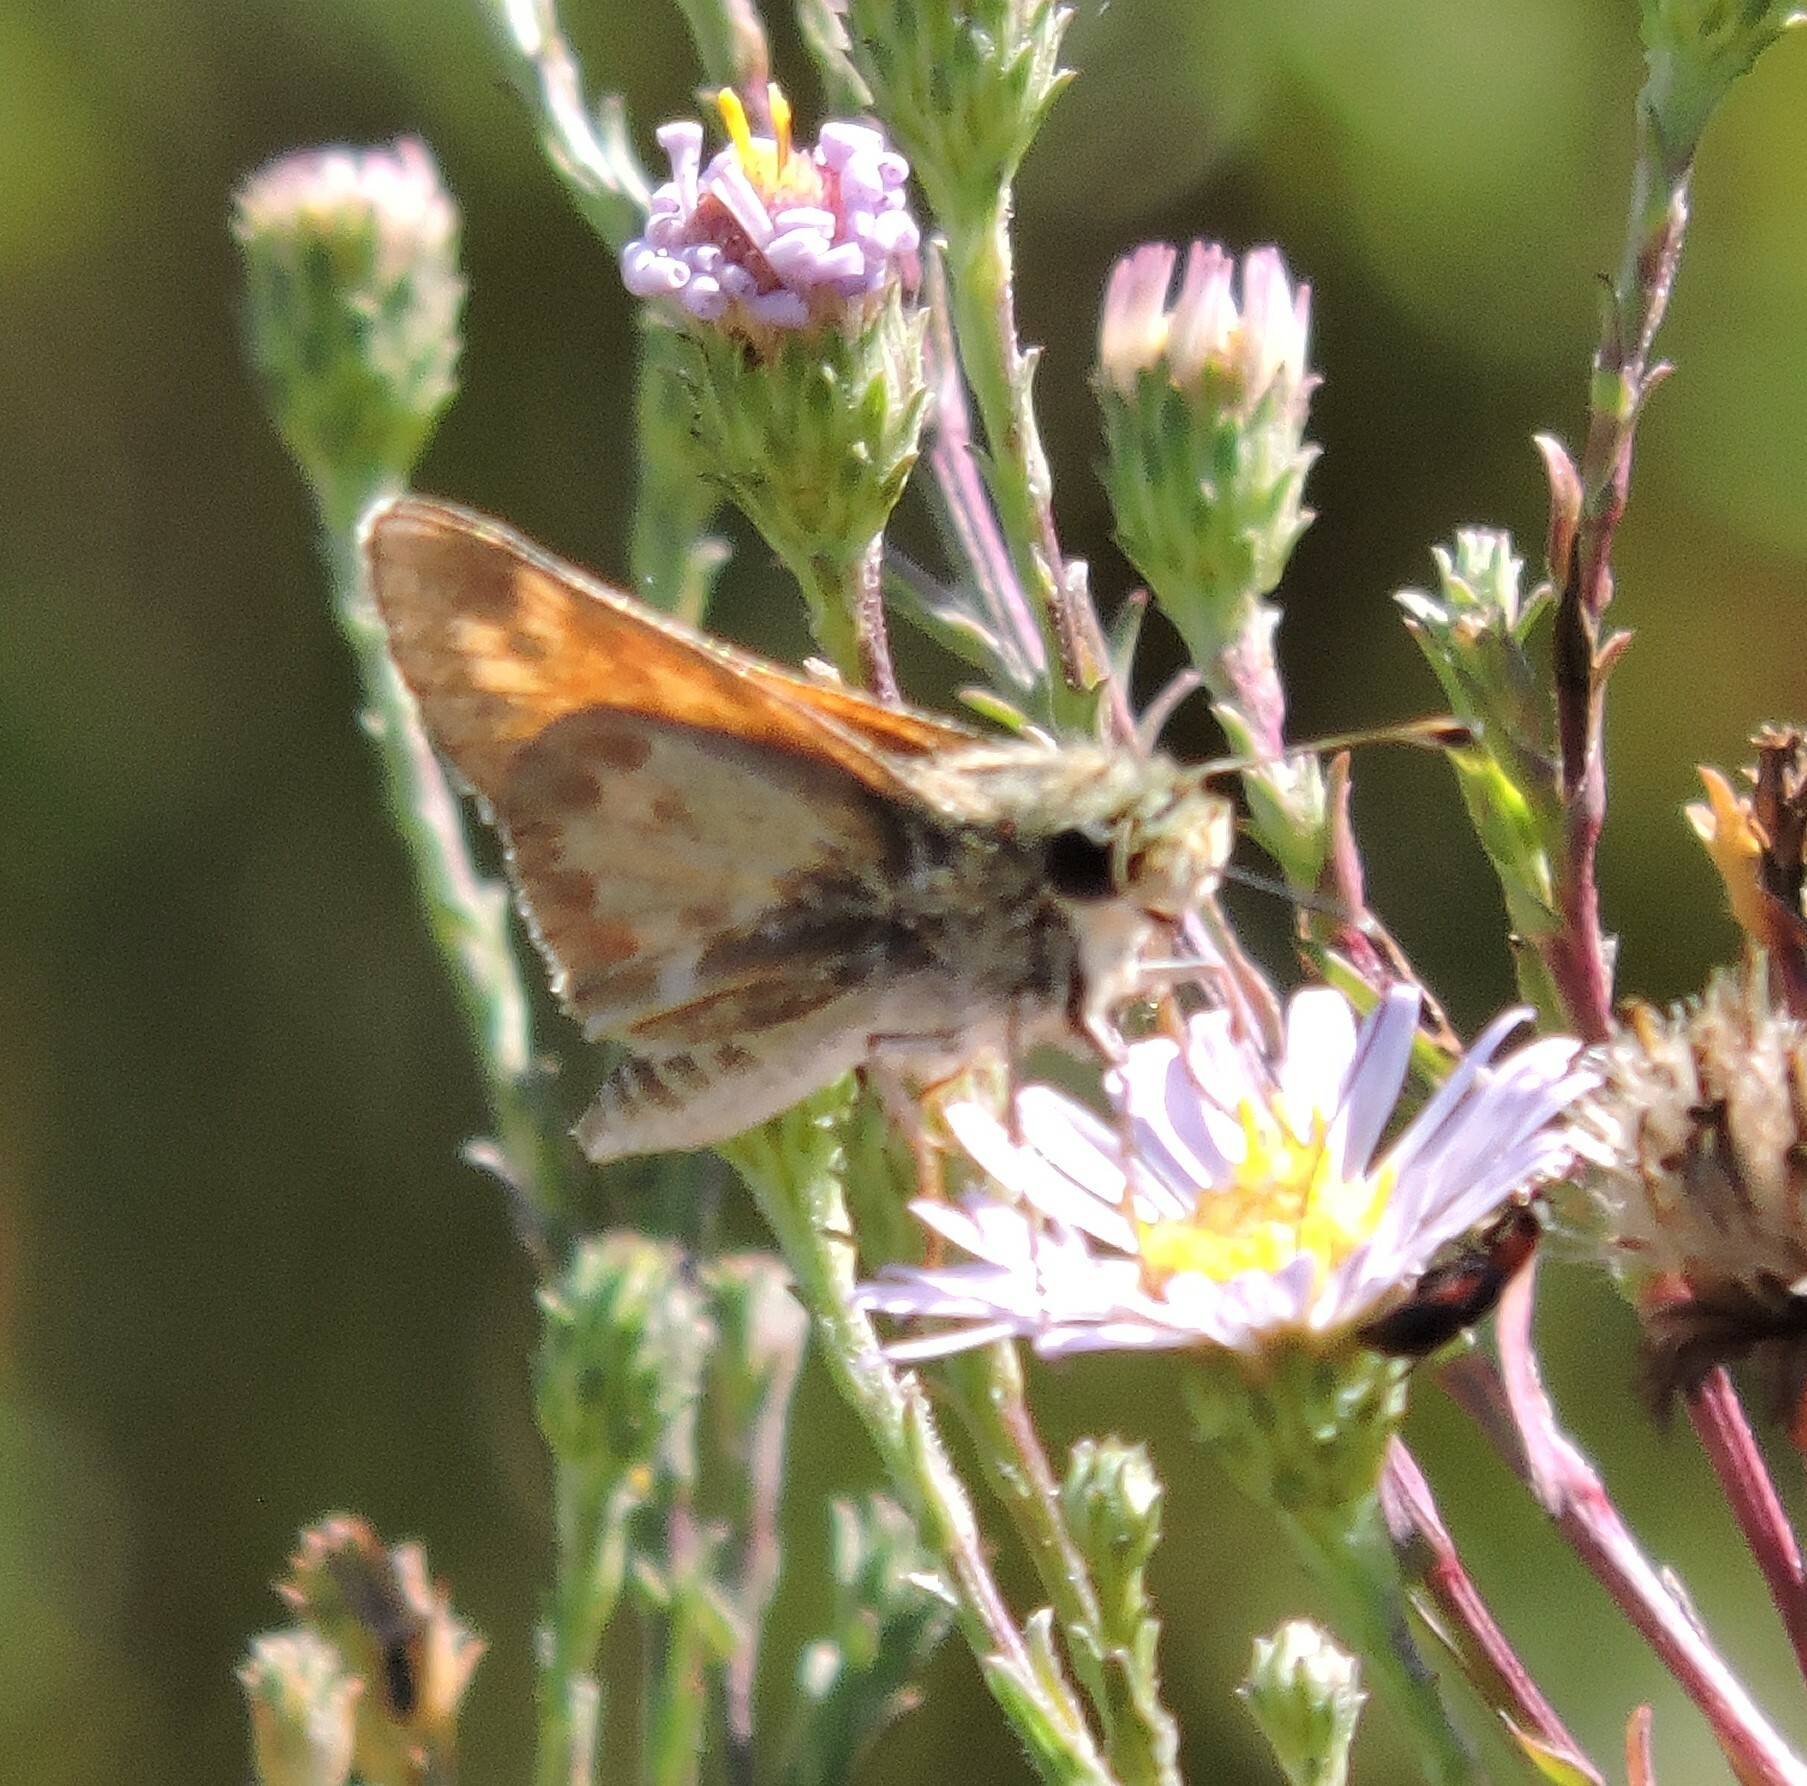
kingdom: Animalia
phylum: Arthropoda
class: Insecta
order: Lepidoptera
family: Hesperiidae
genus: Atalopedes
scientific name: Atalopedes campestris
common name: Sachem
